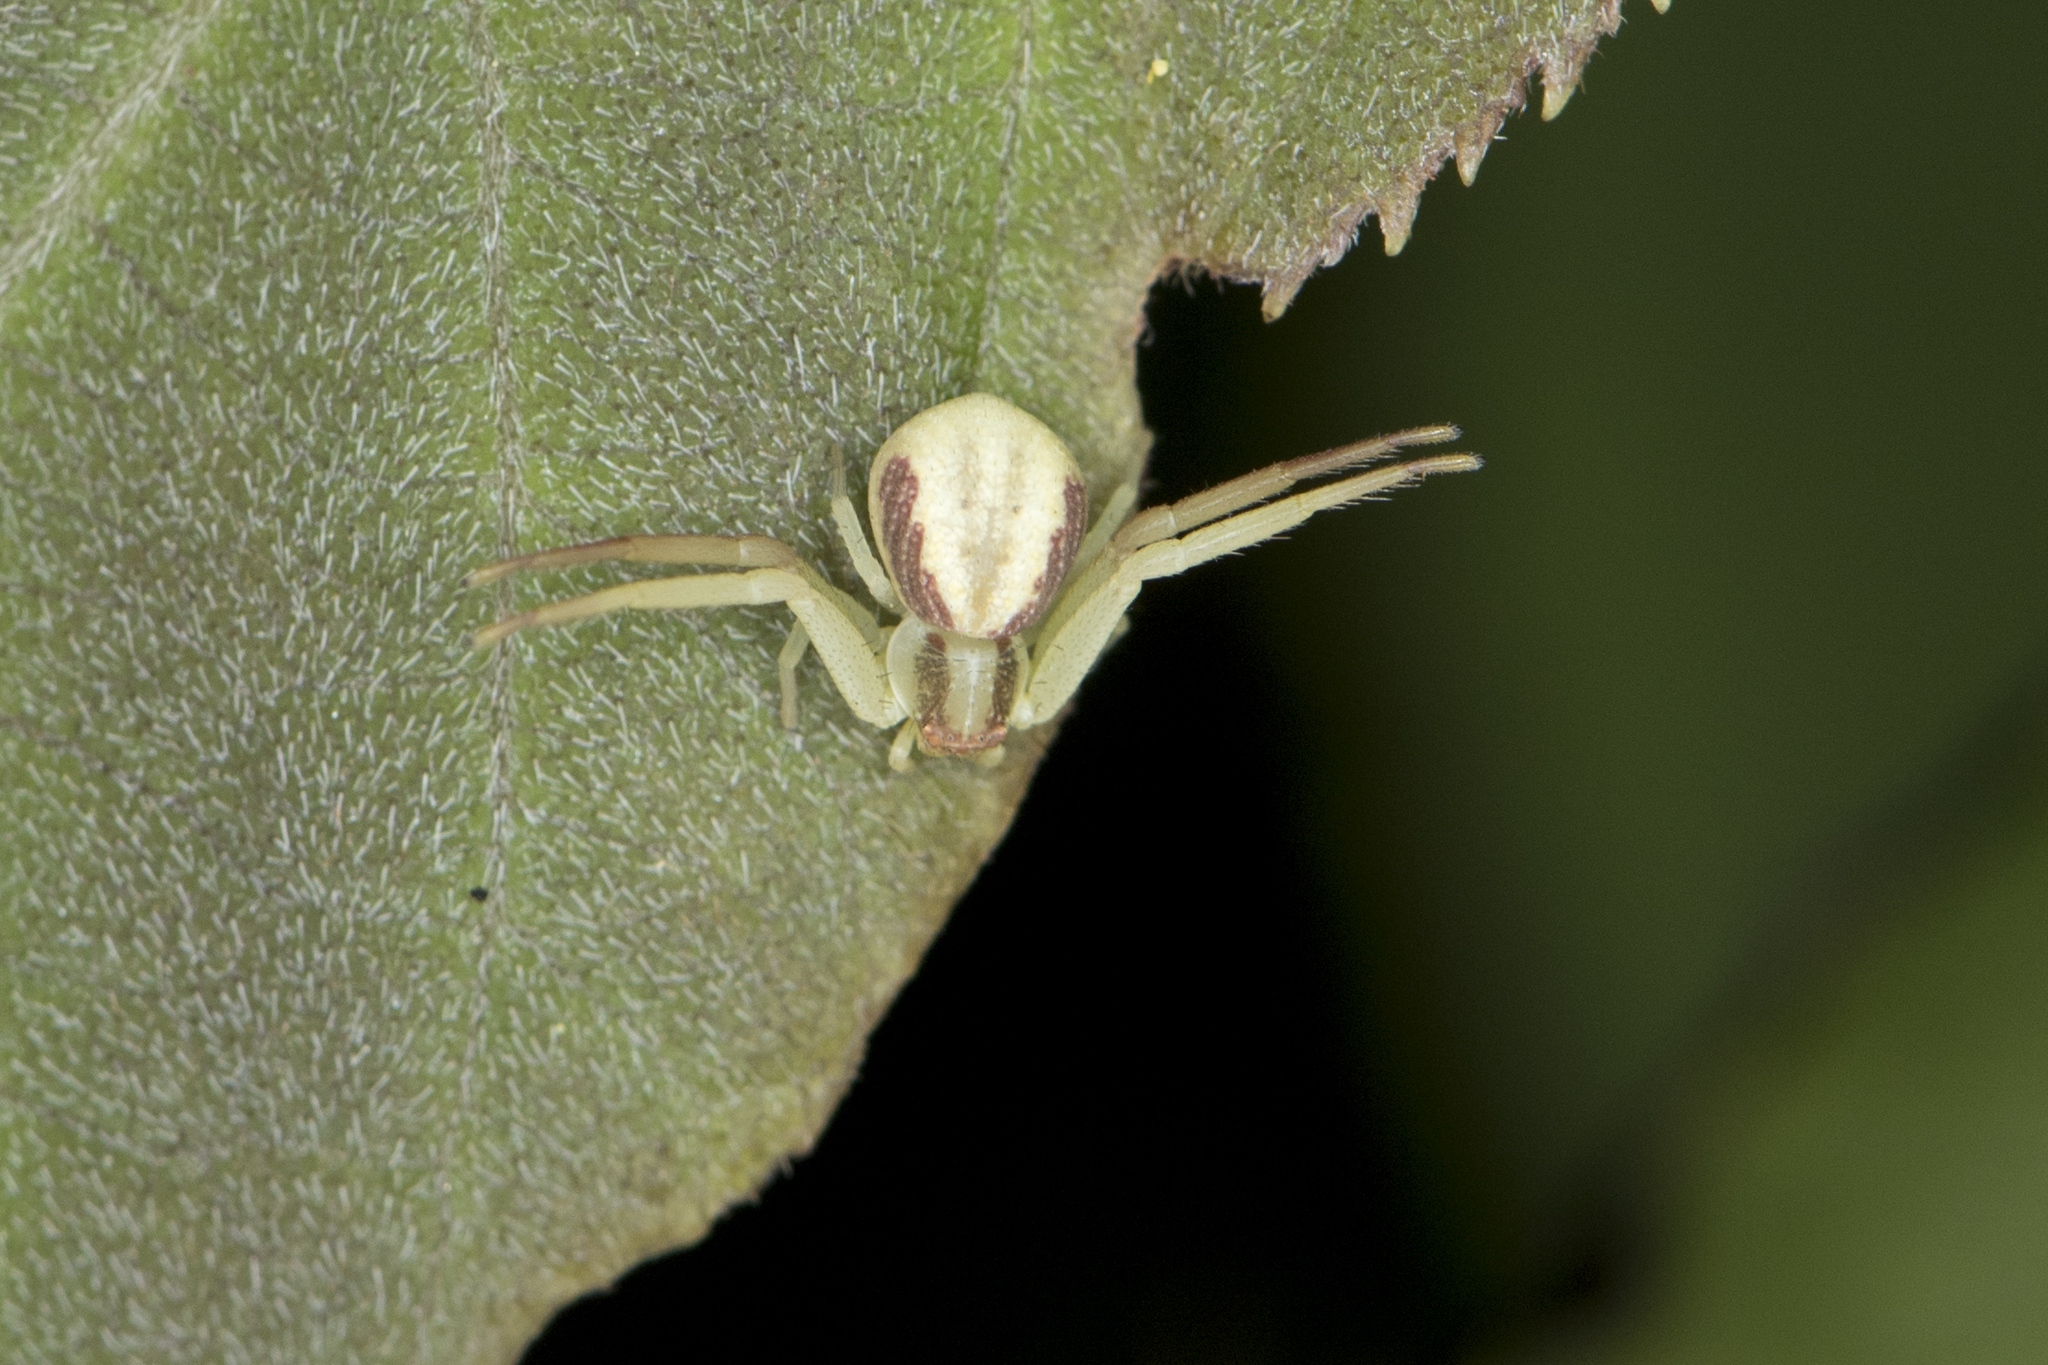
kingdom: Animalia
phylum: Arthropoda
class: Arachnida
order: Araneae
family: Thomisidae
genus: Ebrechtella
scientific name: Ebrechtella pseudovatia
